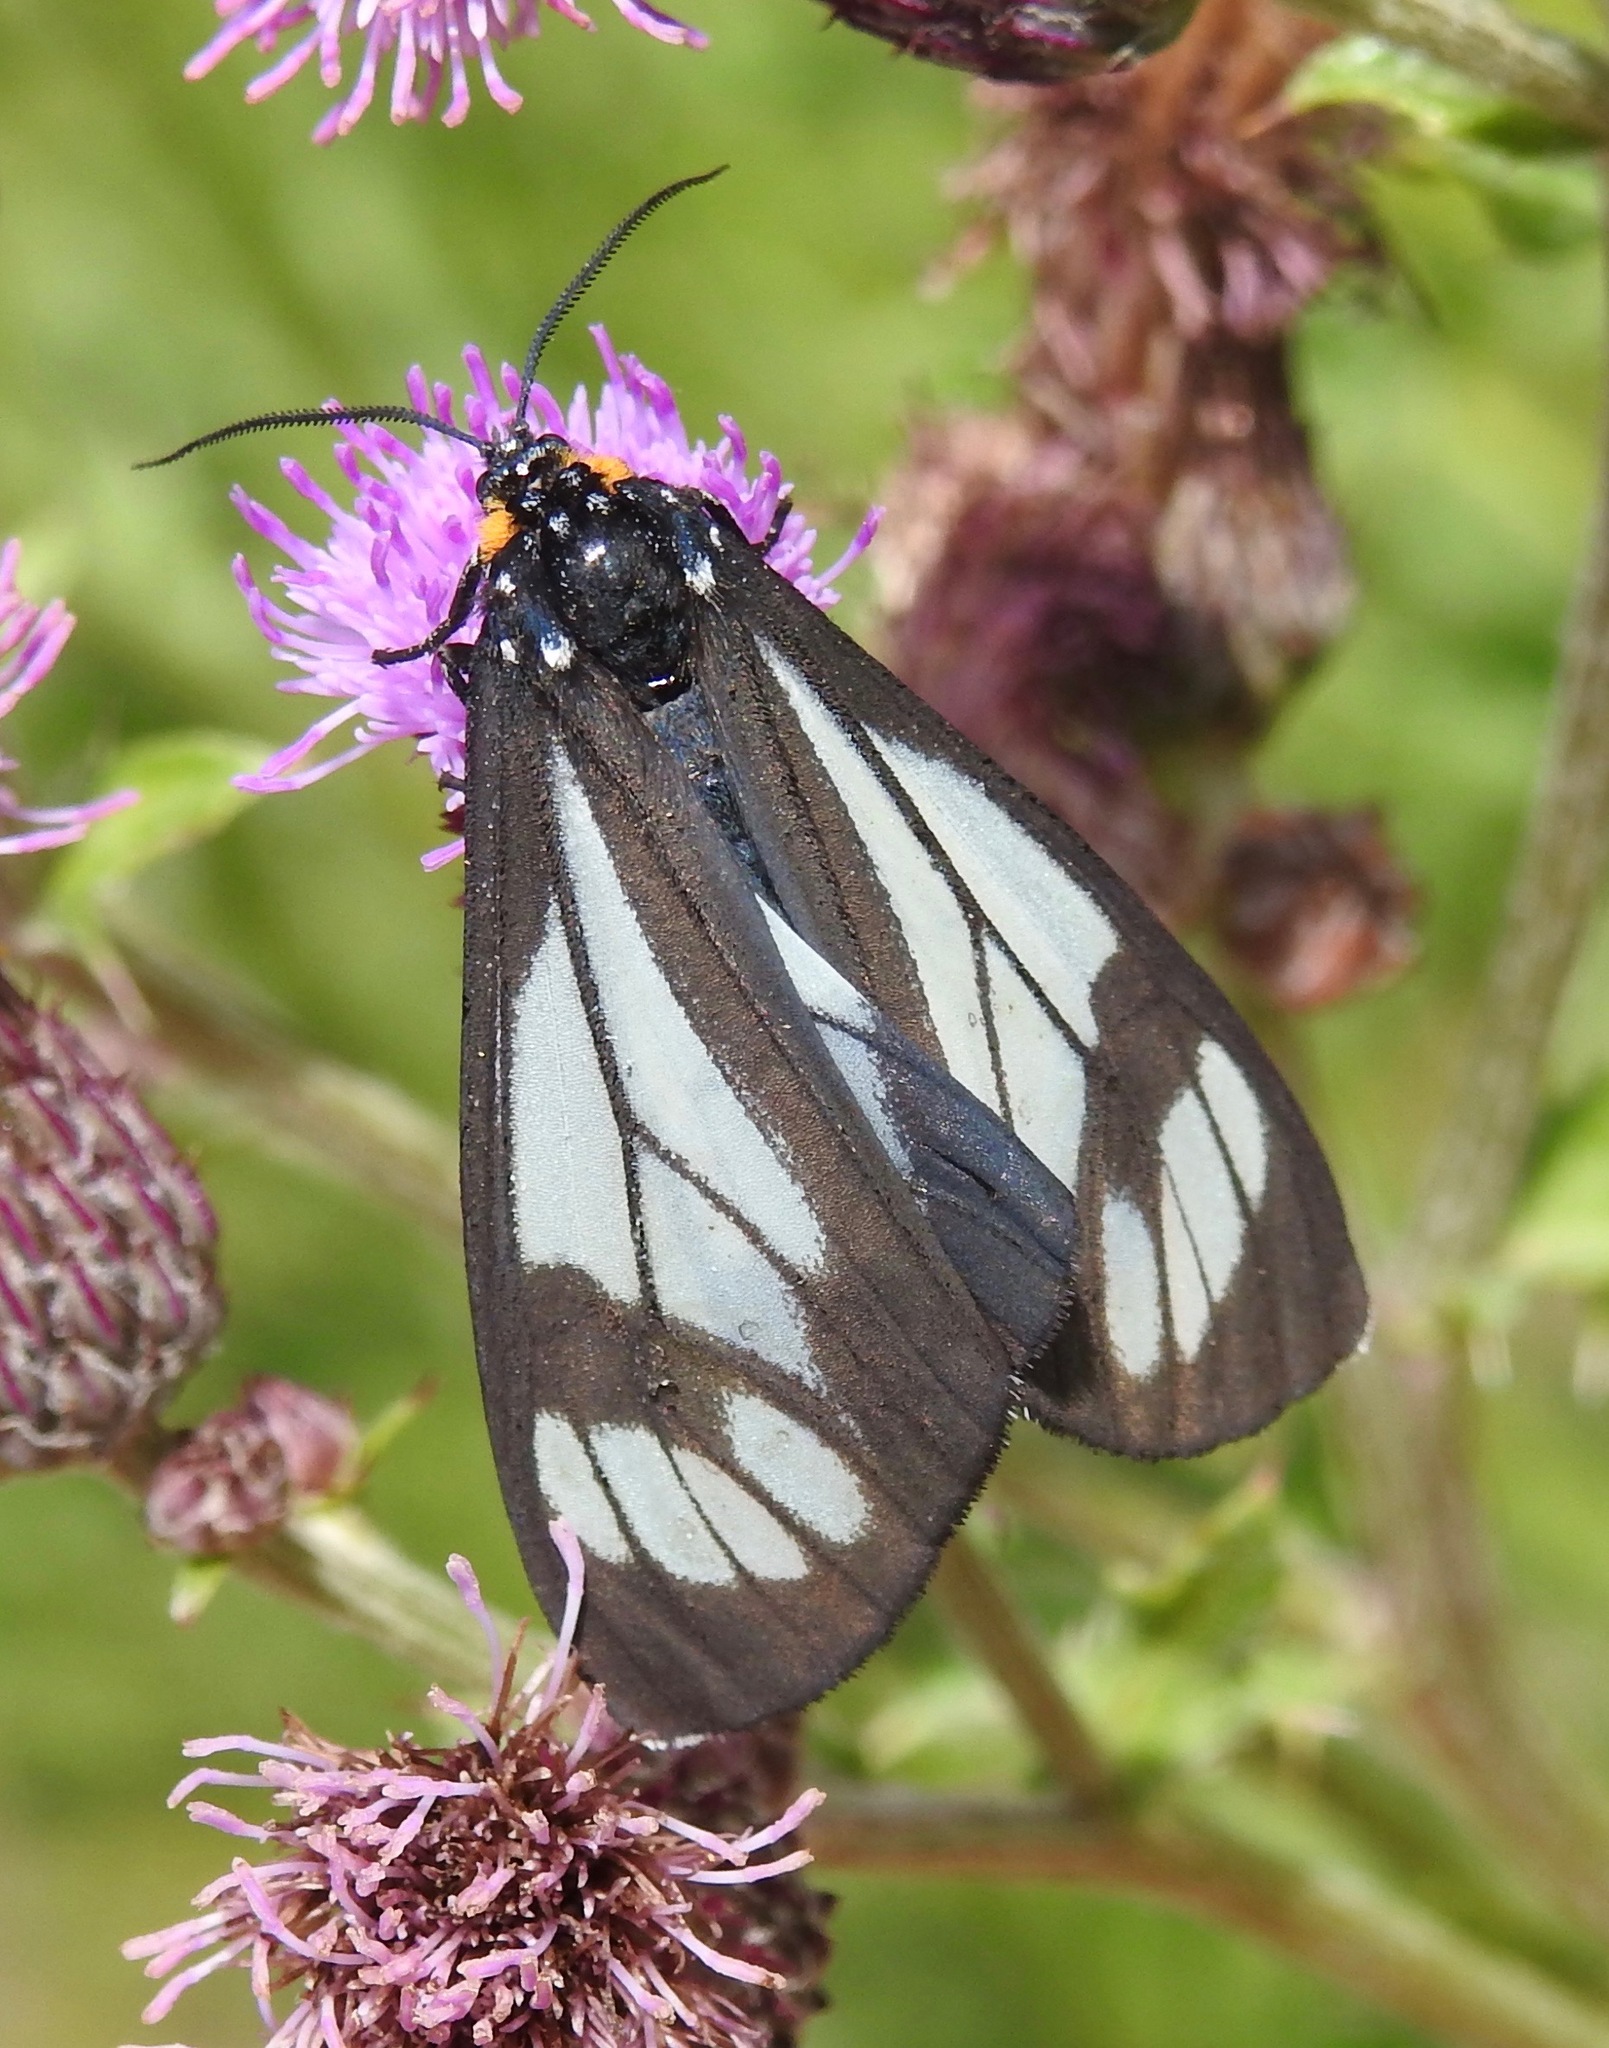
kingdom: Animalia
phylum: Arthropoda
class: Insecta
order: Lepidoptera
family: Erebidae
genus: Gnophaela
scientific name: Gnophaela vermiculata
